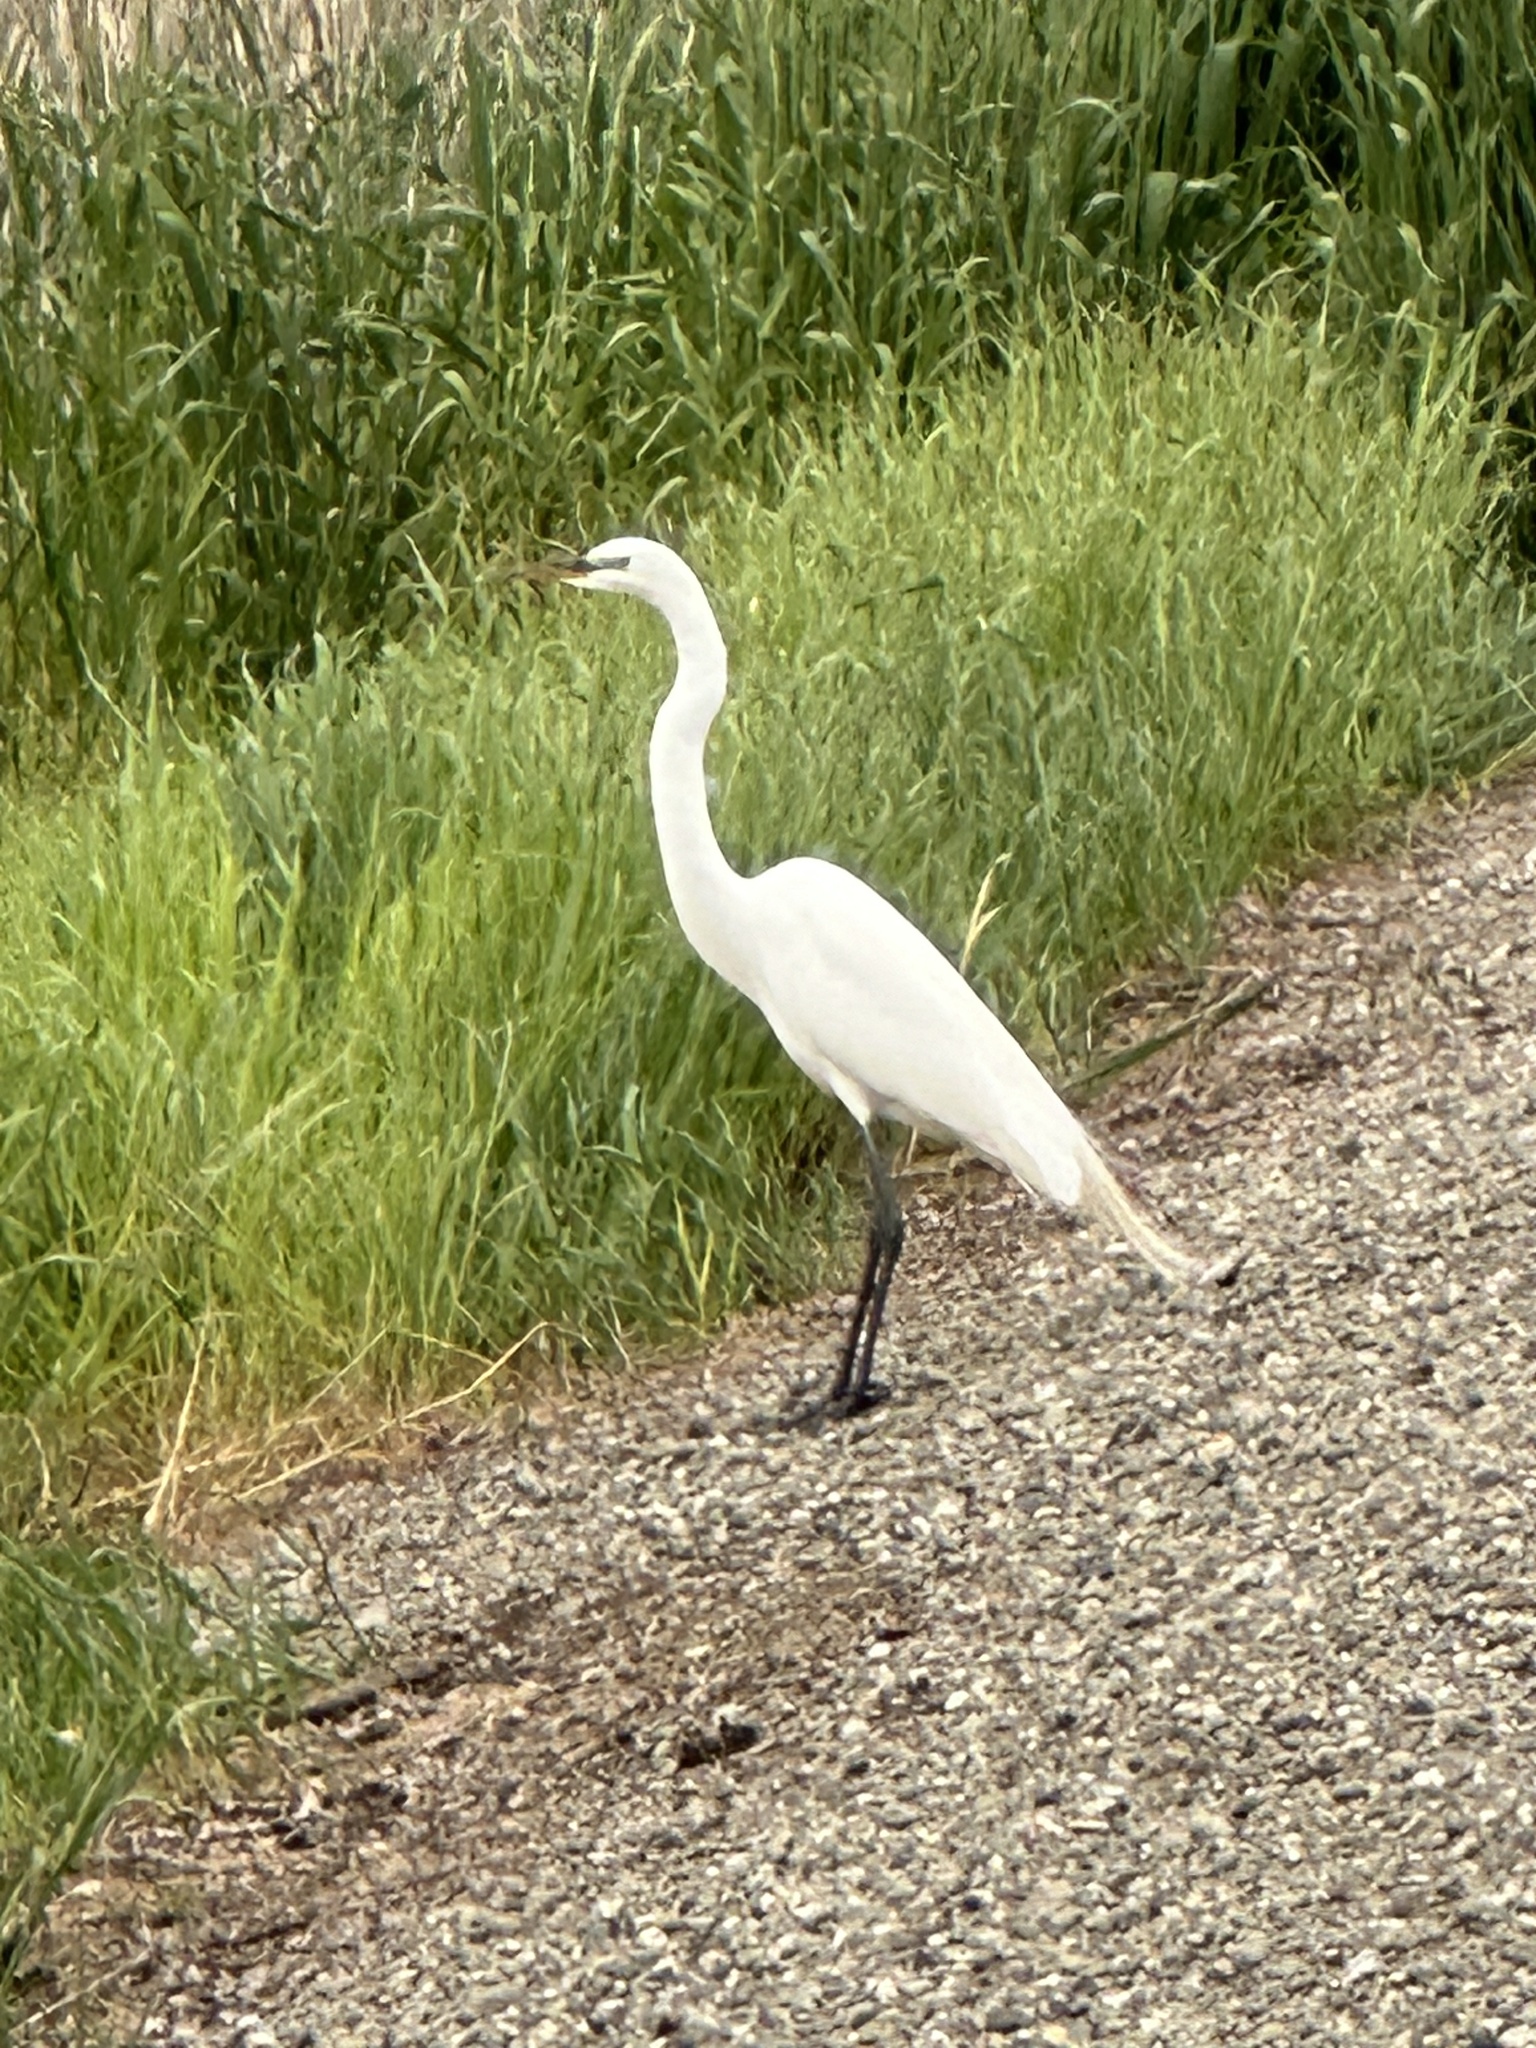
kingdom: Animalia
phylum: Chordata
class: Aves
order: Pelecaniformes
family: Ardeidae
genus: Ardea
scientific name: Ardea alba
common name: Great egret
